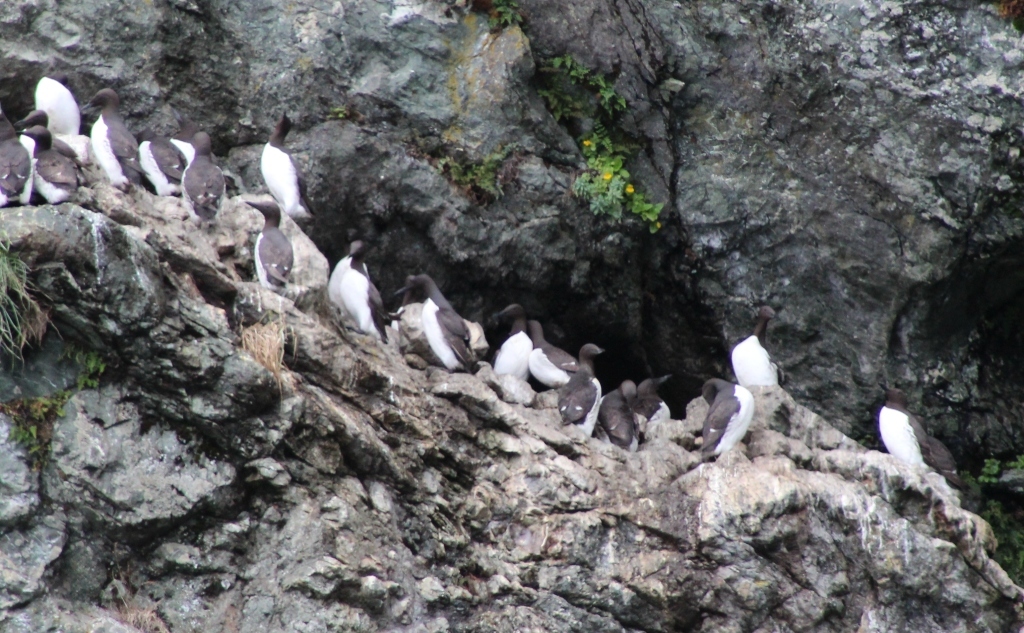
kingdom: Animalia
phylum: Chordata
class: Aves
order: Charadriiformes
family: Alcidae
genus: Uria
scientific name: Uria aalge
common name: Common murre
